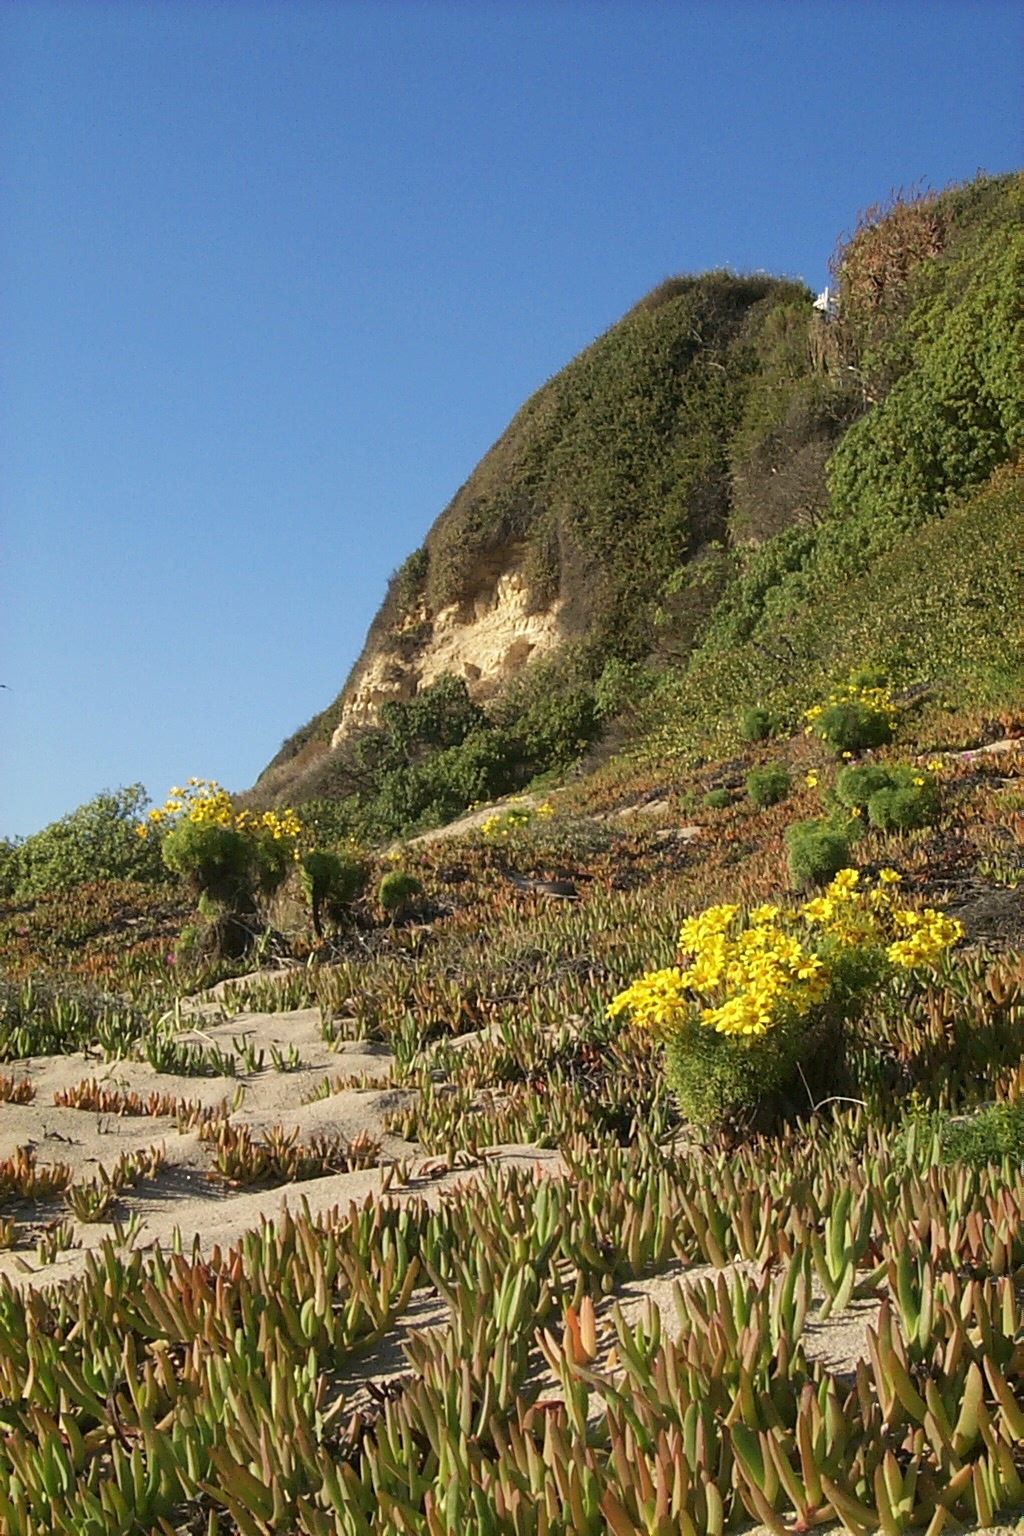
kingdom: Plantae
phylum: Tracheophyta
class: Magnoliopsida
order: Asterales
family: Asteraceae
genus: Coreopsis
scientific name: Coreopsis gigantea
